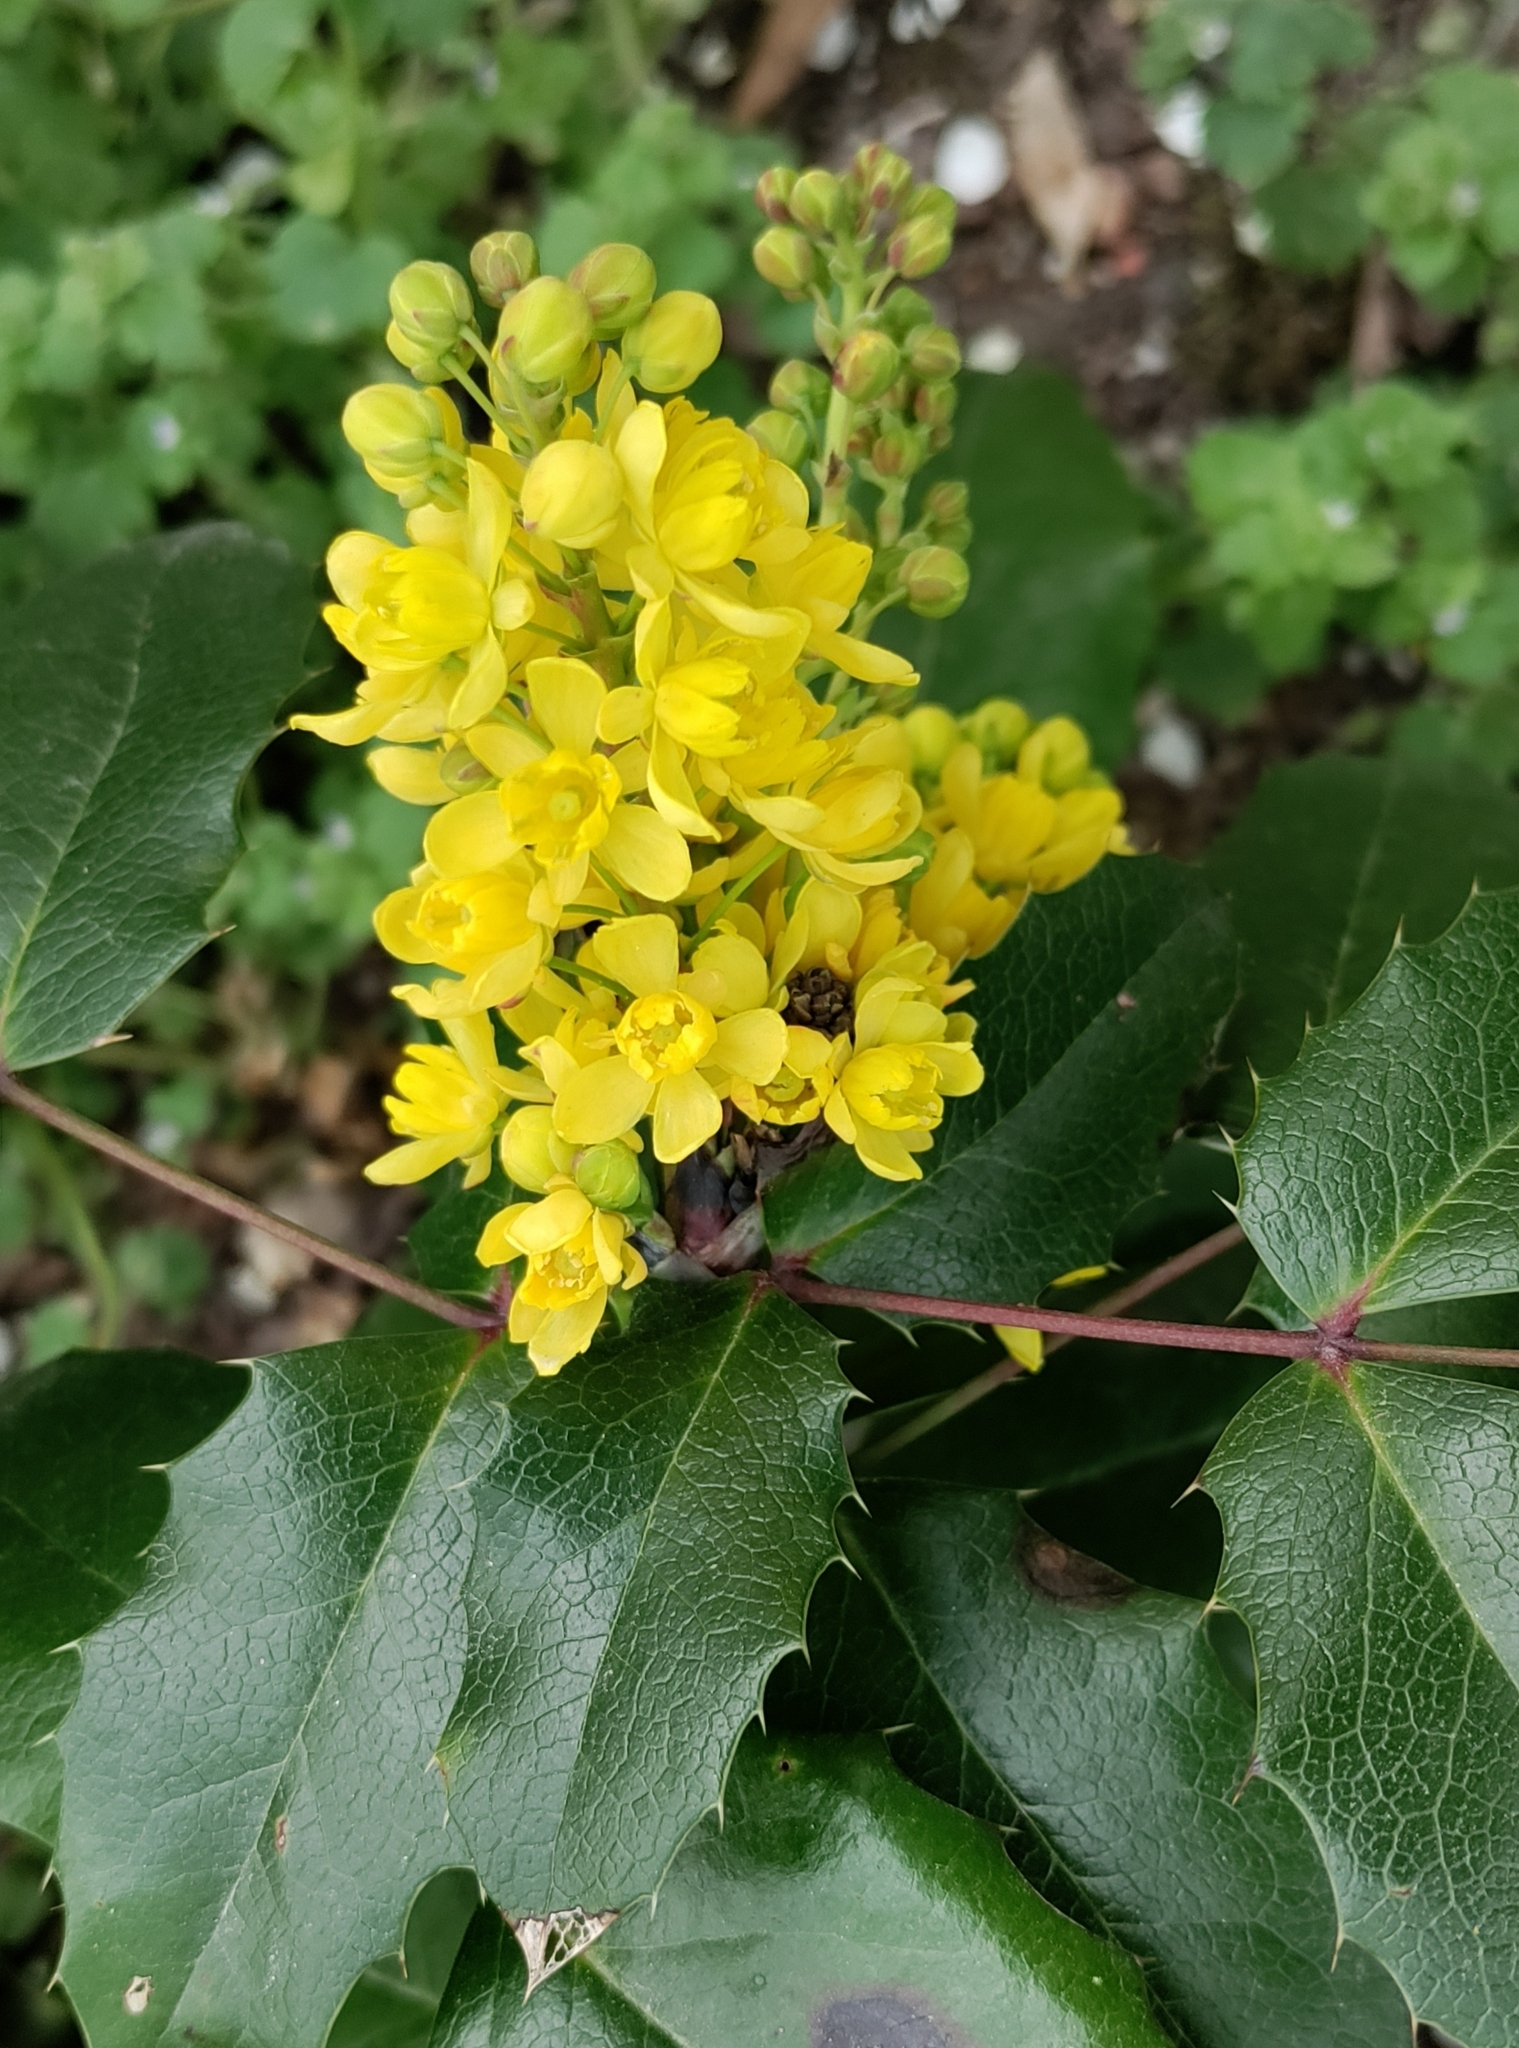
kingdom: Plantae
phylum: Tracheophyta
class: Magnoliopsida
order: Ranunculales
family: Berberidaceae
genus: Mahonia
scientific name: Mahonia aquifolium
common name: Oregon-grape
